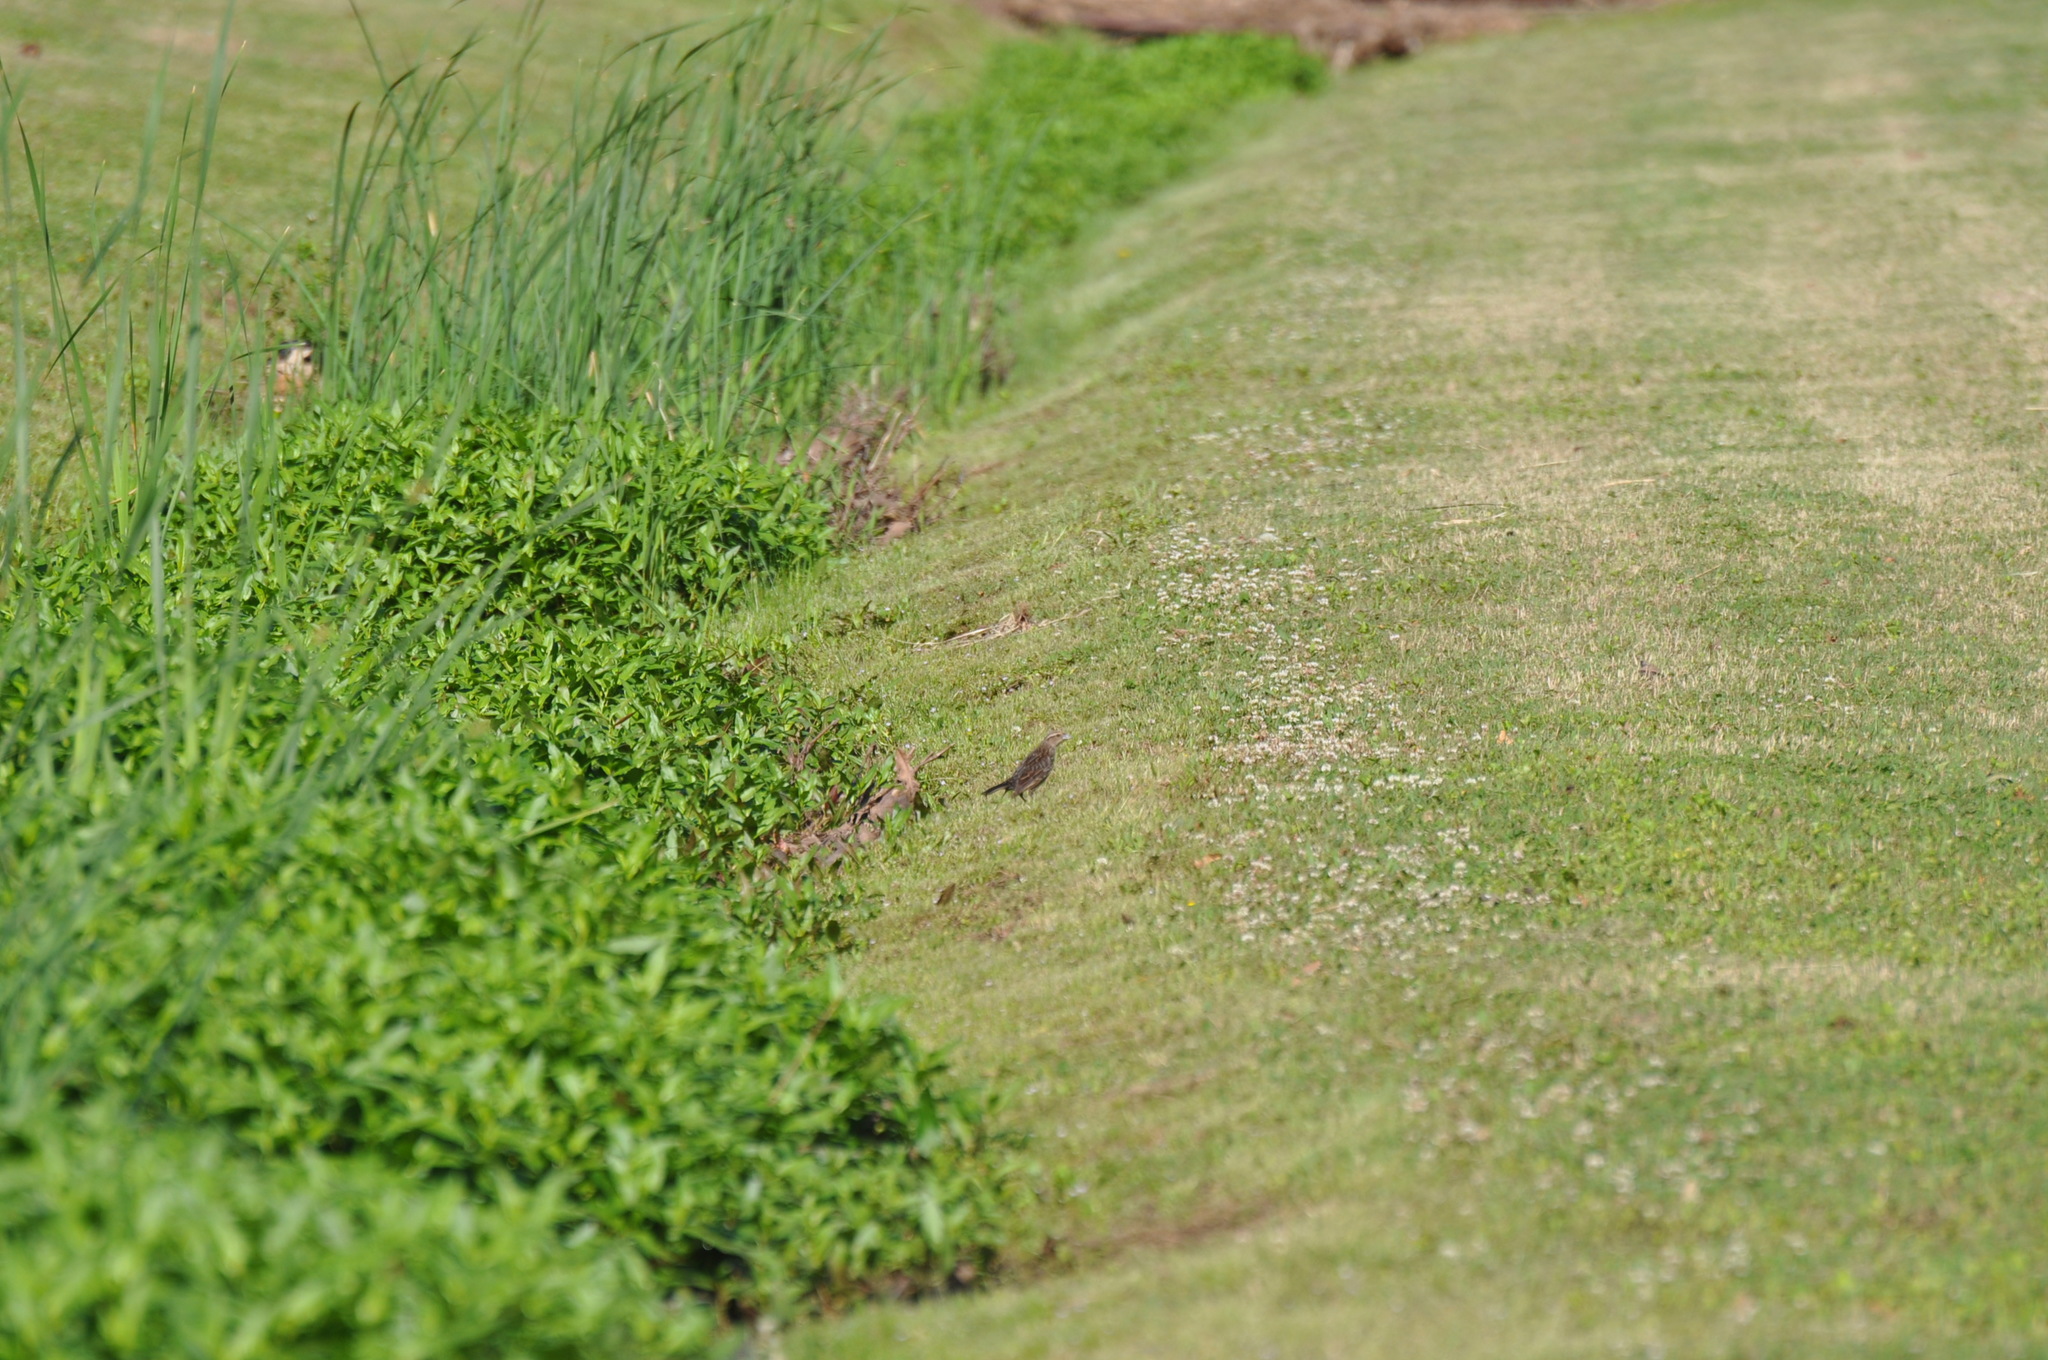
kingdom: Animalia
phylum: Chordata
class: Aves
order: Passeriformes
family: Icteridae
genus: Agelaius
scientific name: Agelaius phoeniceus
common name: Red-winged blackbird
